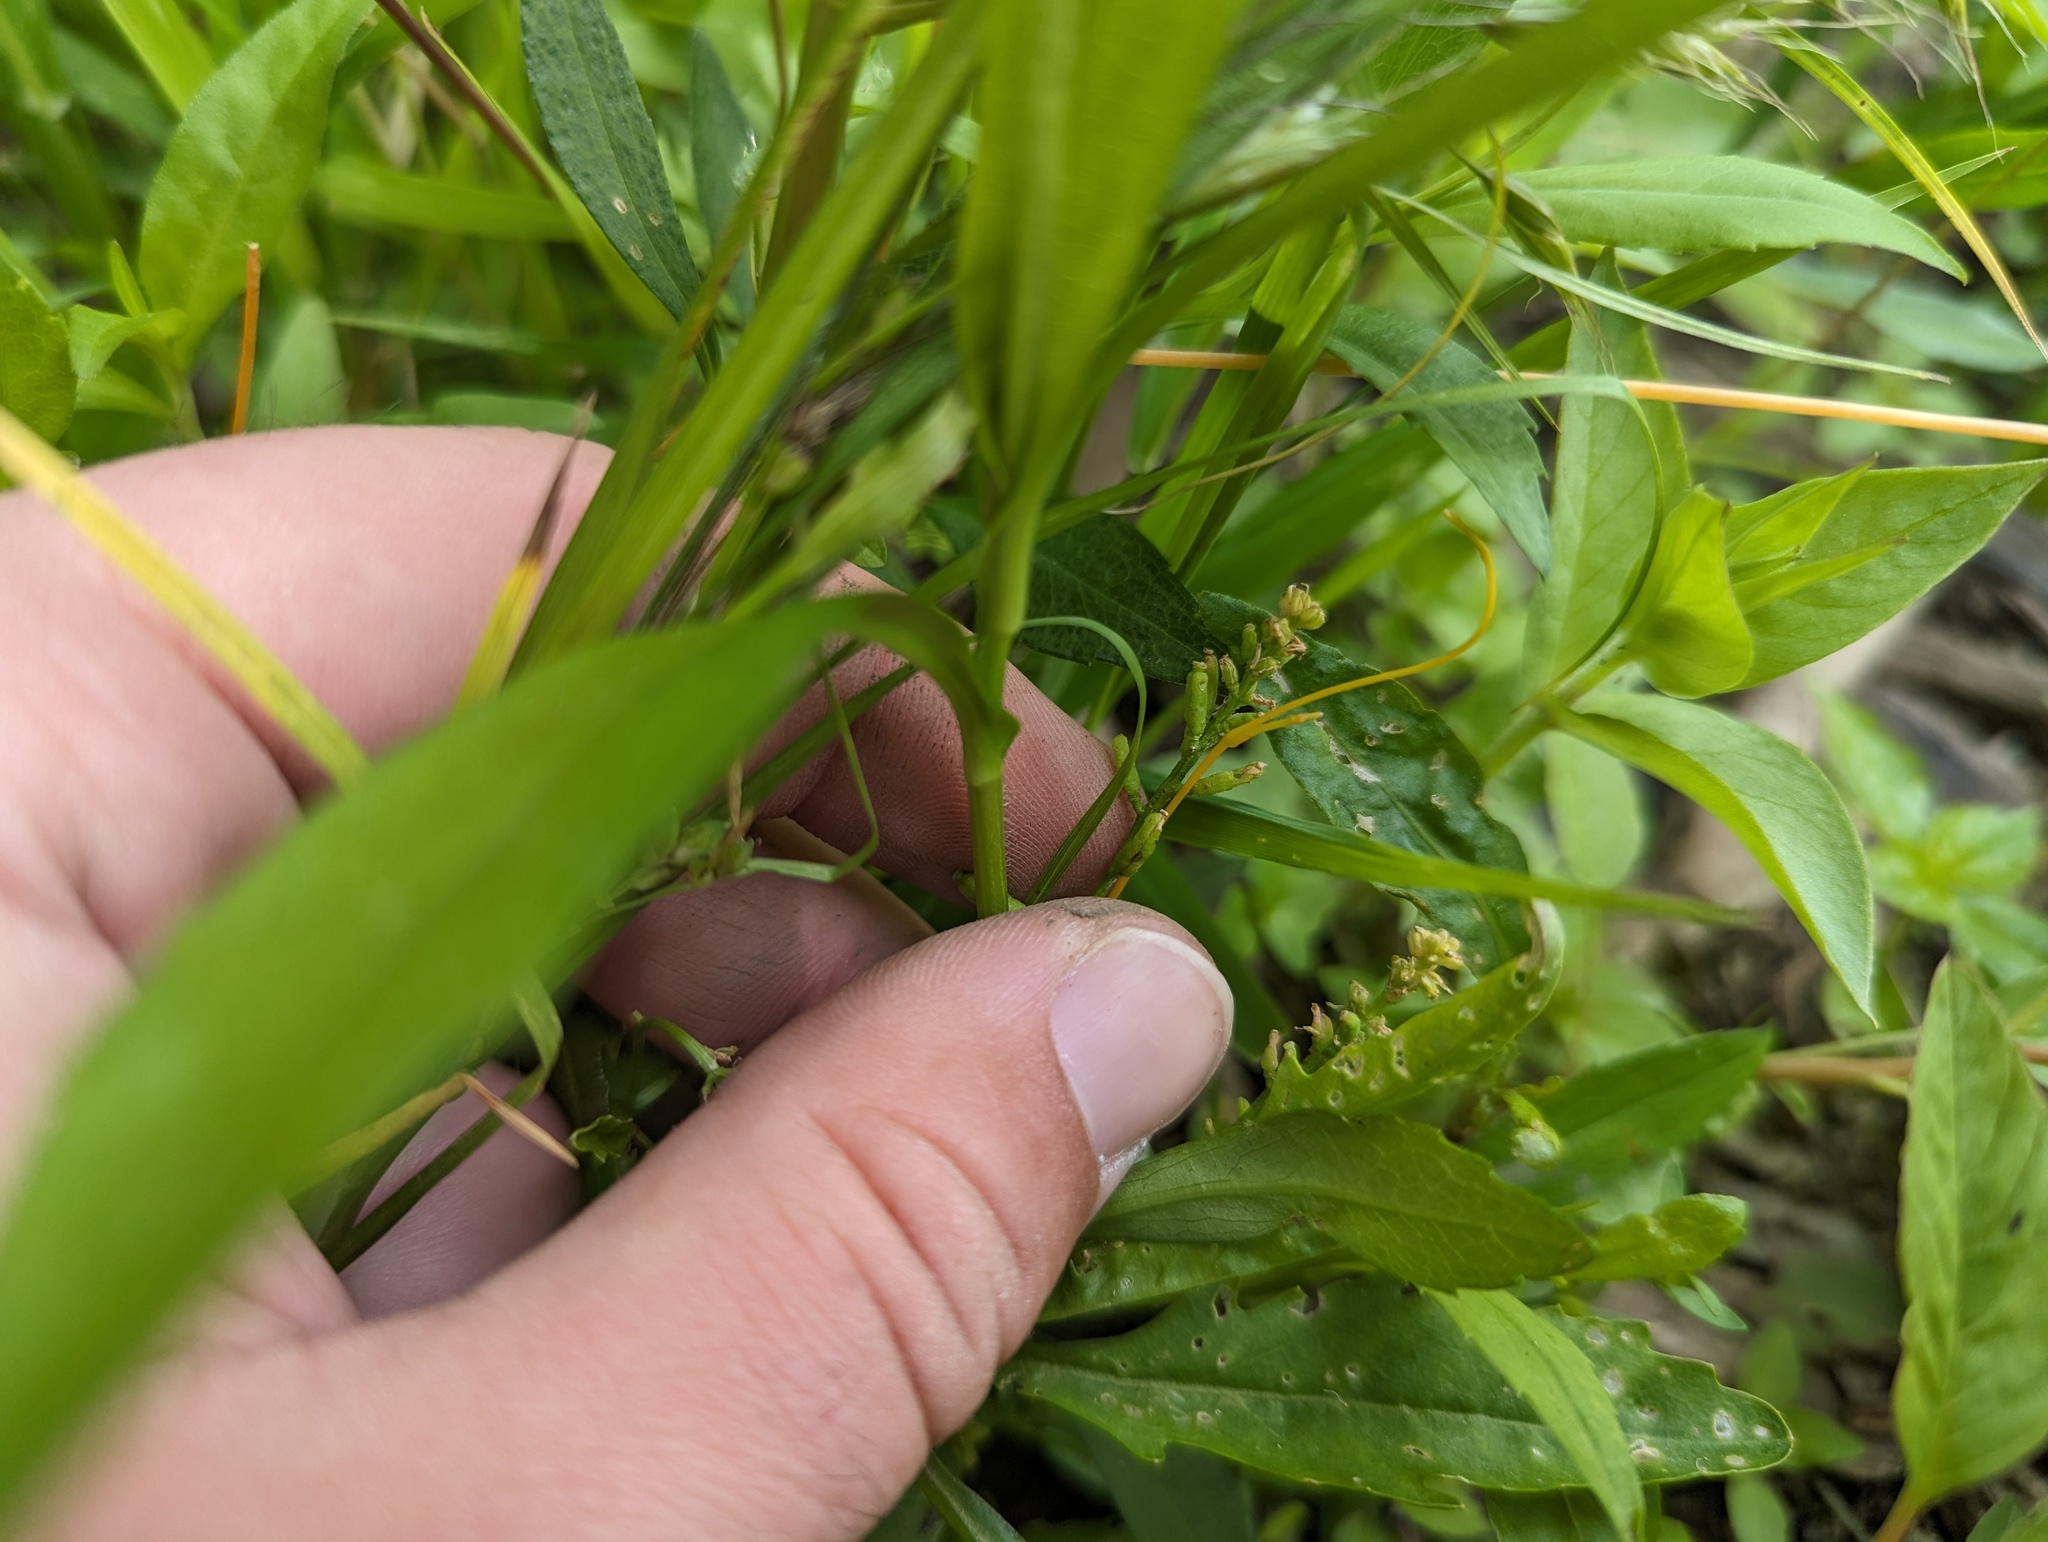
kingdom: Plantae
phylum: Tracheophyta
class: Magnoliopsida
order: Brassicales
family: Brassicaceae
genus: Rorippa
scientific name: Rorippa sessiliflora
